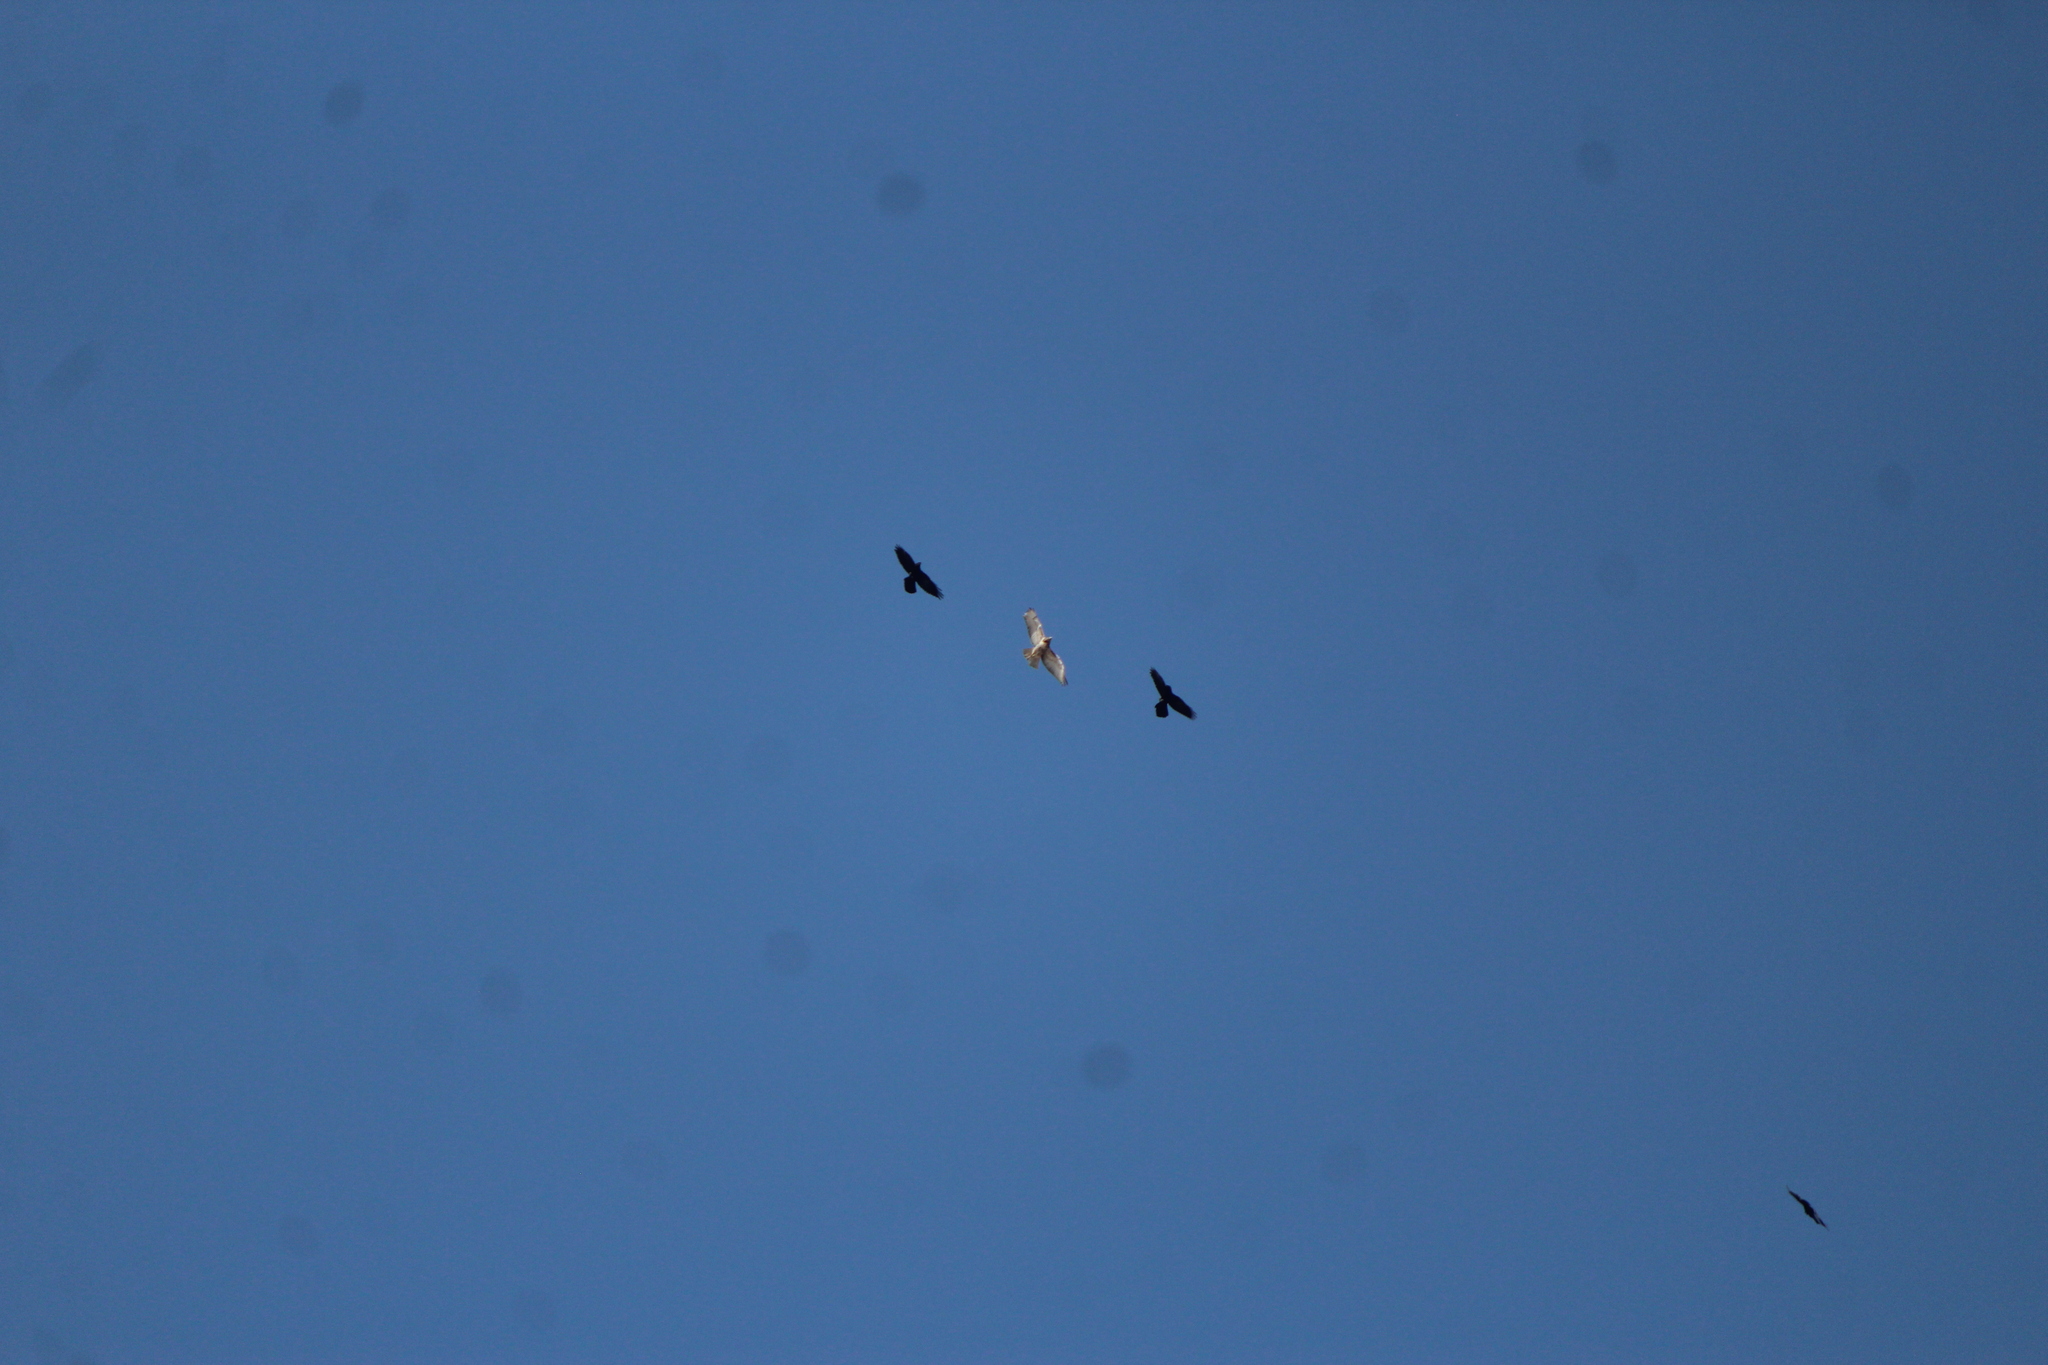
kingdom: Animalia
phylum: Chordata
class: Aves
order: Accipitriformes
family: Accipitridae
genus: Buteo
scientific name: Buteo jamaicensis
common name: Red-tailed hawk
